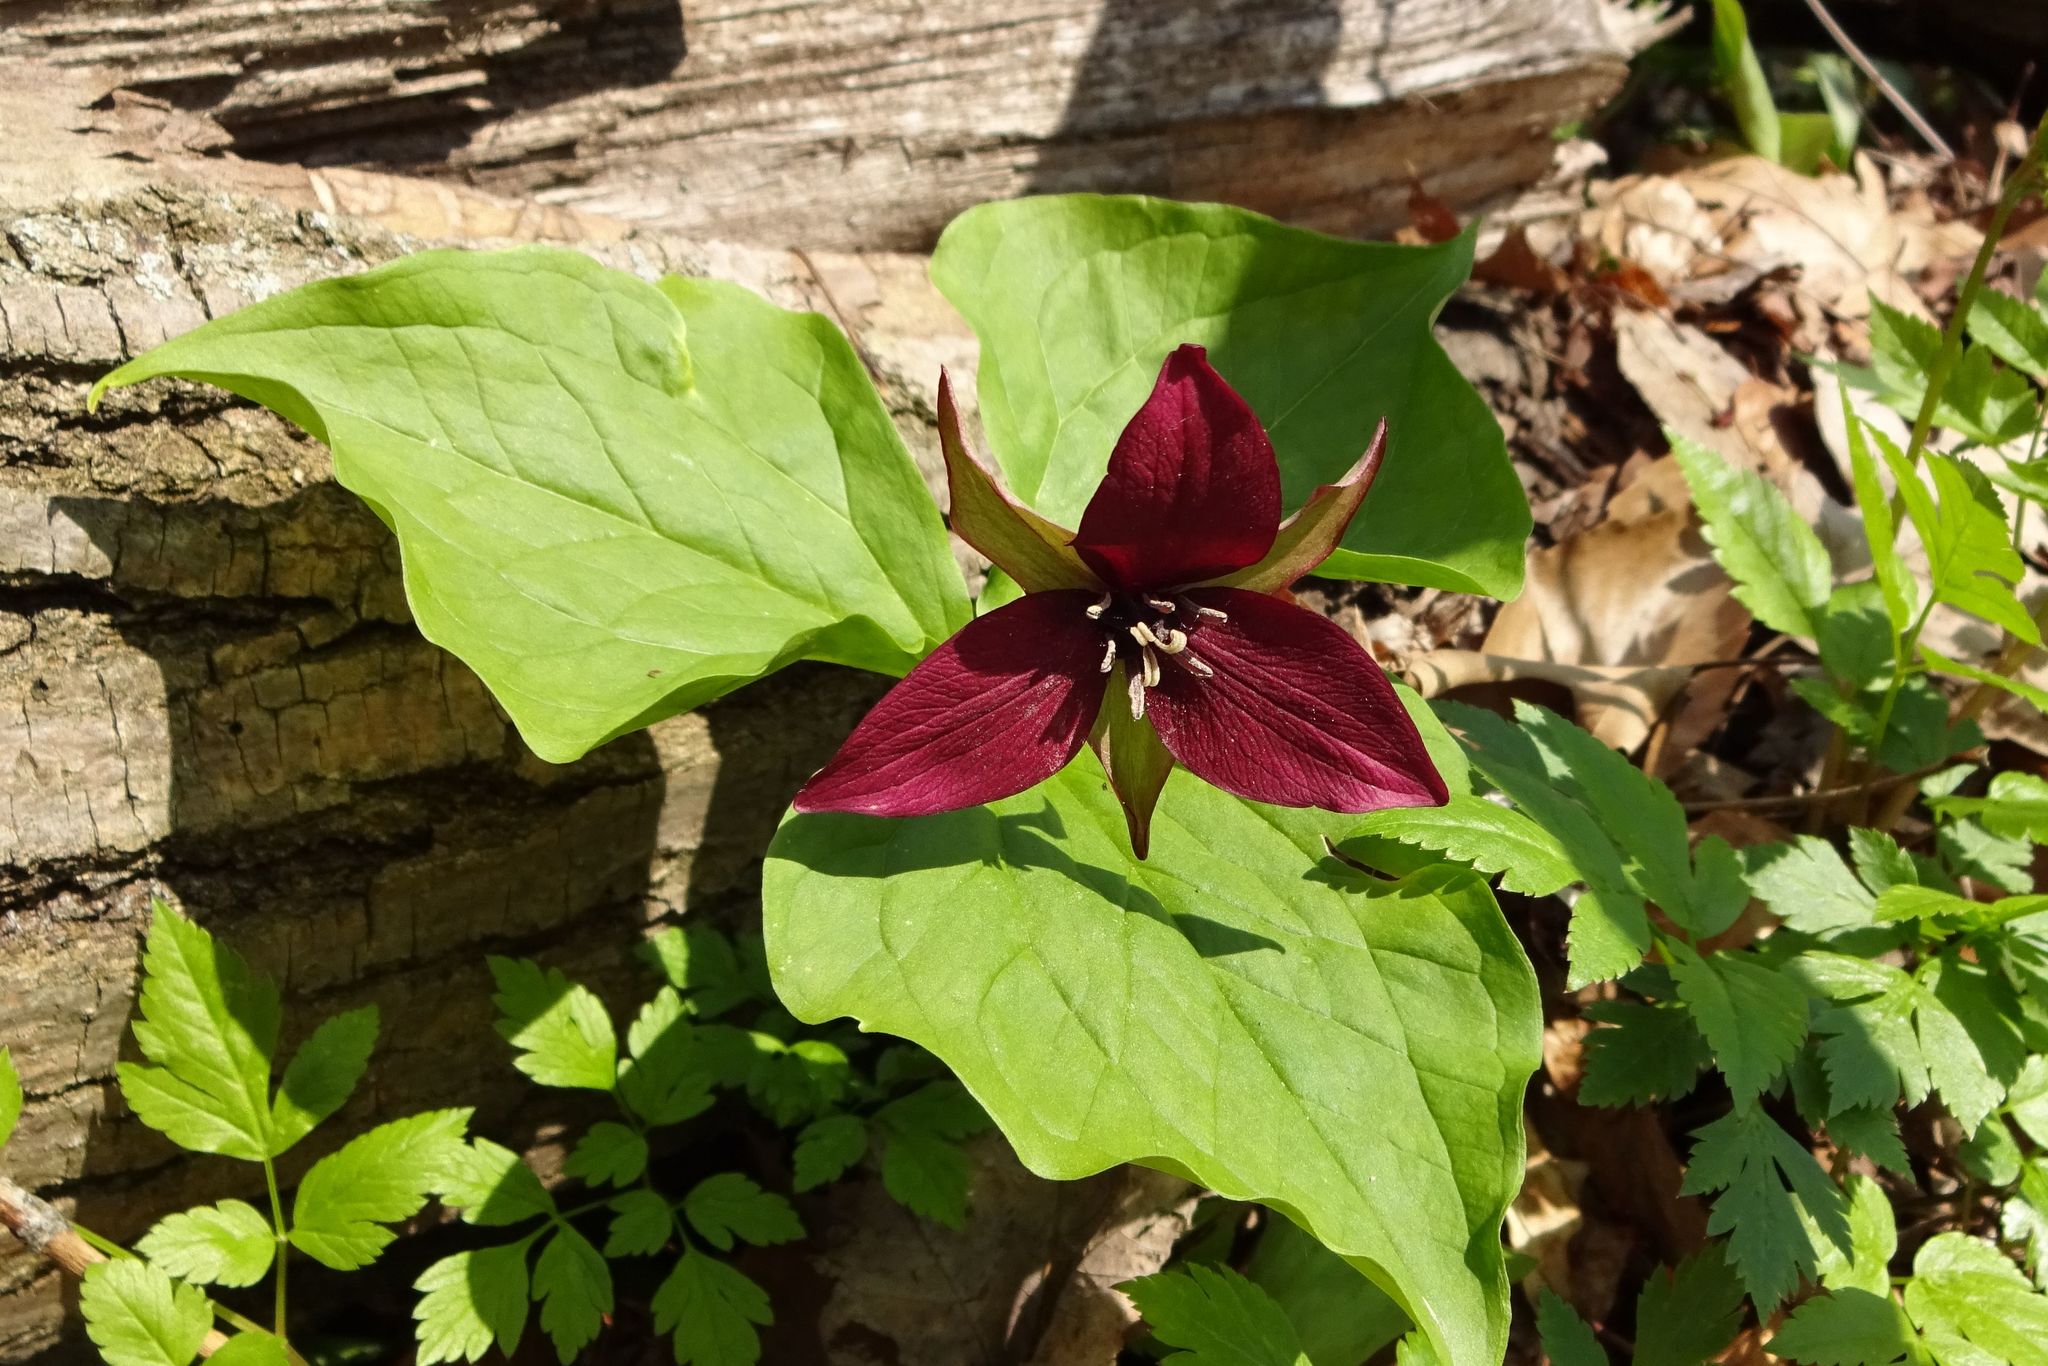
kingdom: Plantae
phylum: Tracheophyta
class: Liliopsida
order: Liliales
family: Melanthiaceae
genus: Trillium
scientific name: Trillium erectum
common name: Purple trillium
